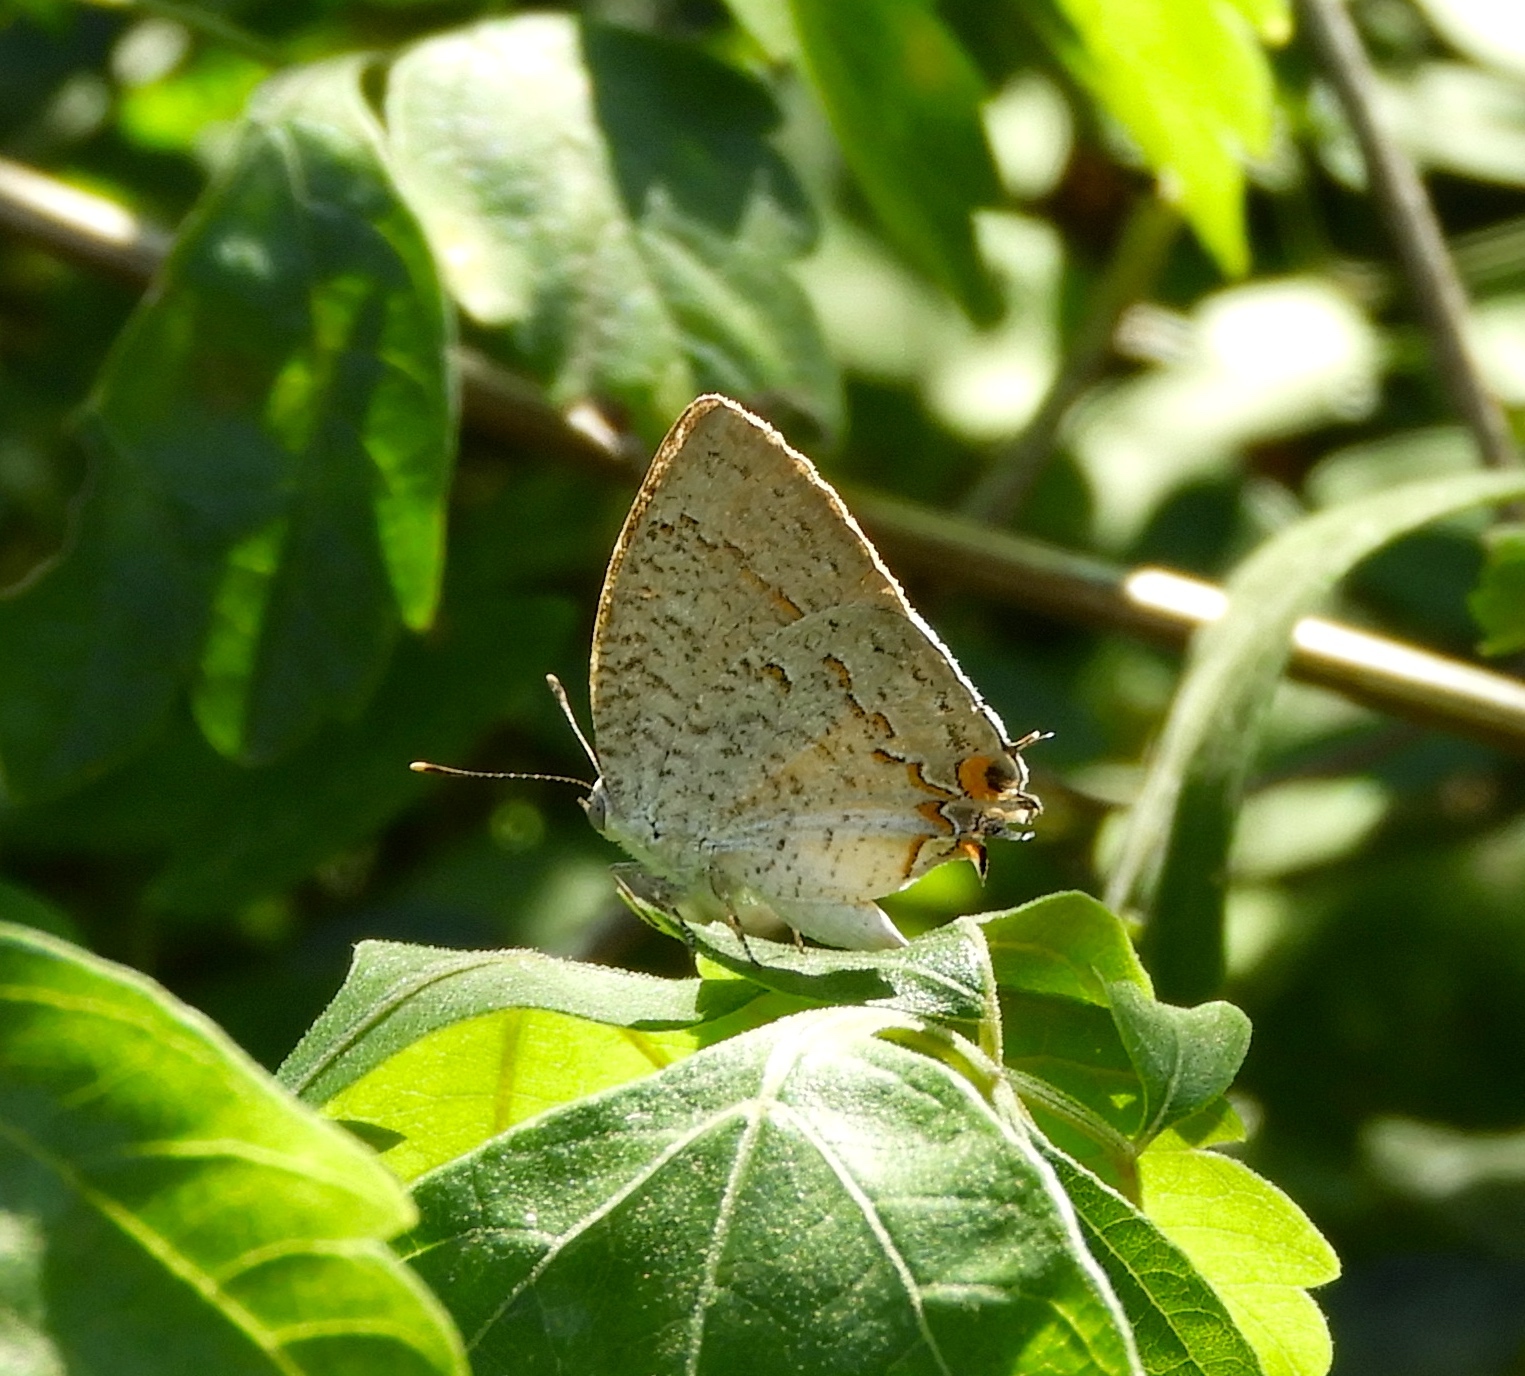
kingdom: Animalia
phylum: Arthropoda
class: Insecta
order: Lepidoptera
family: Lycaenidae
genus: Hypostrymon
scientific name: Hypostrymon critola
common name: Sonoran hairstreak
